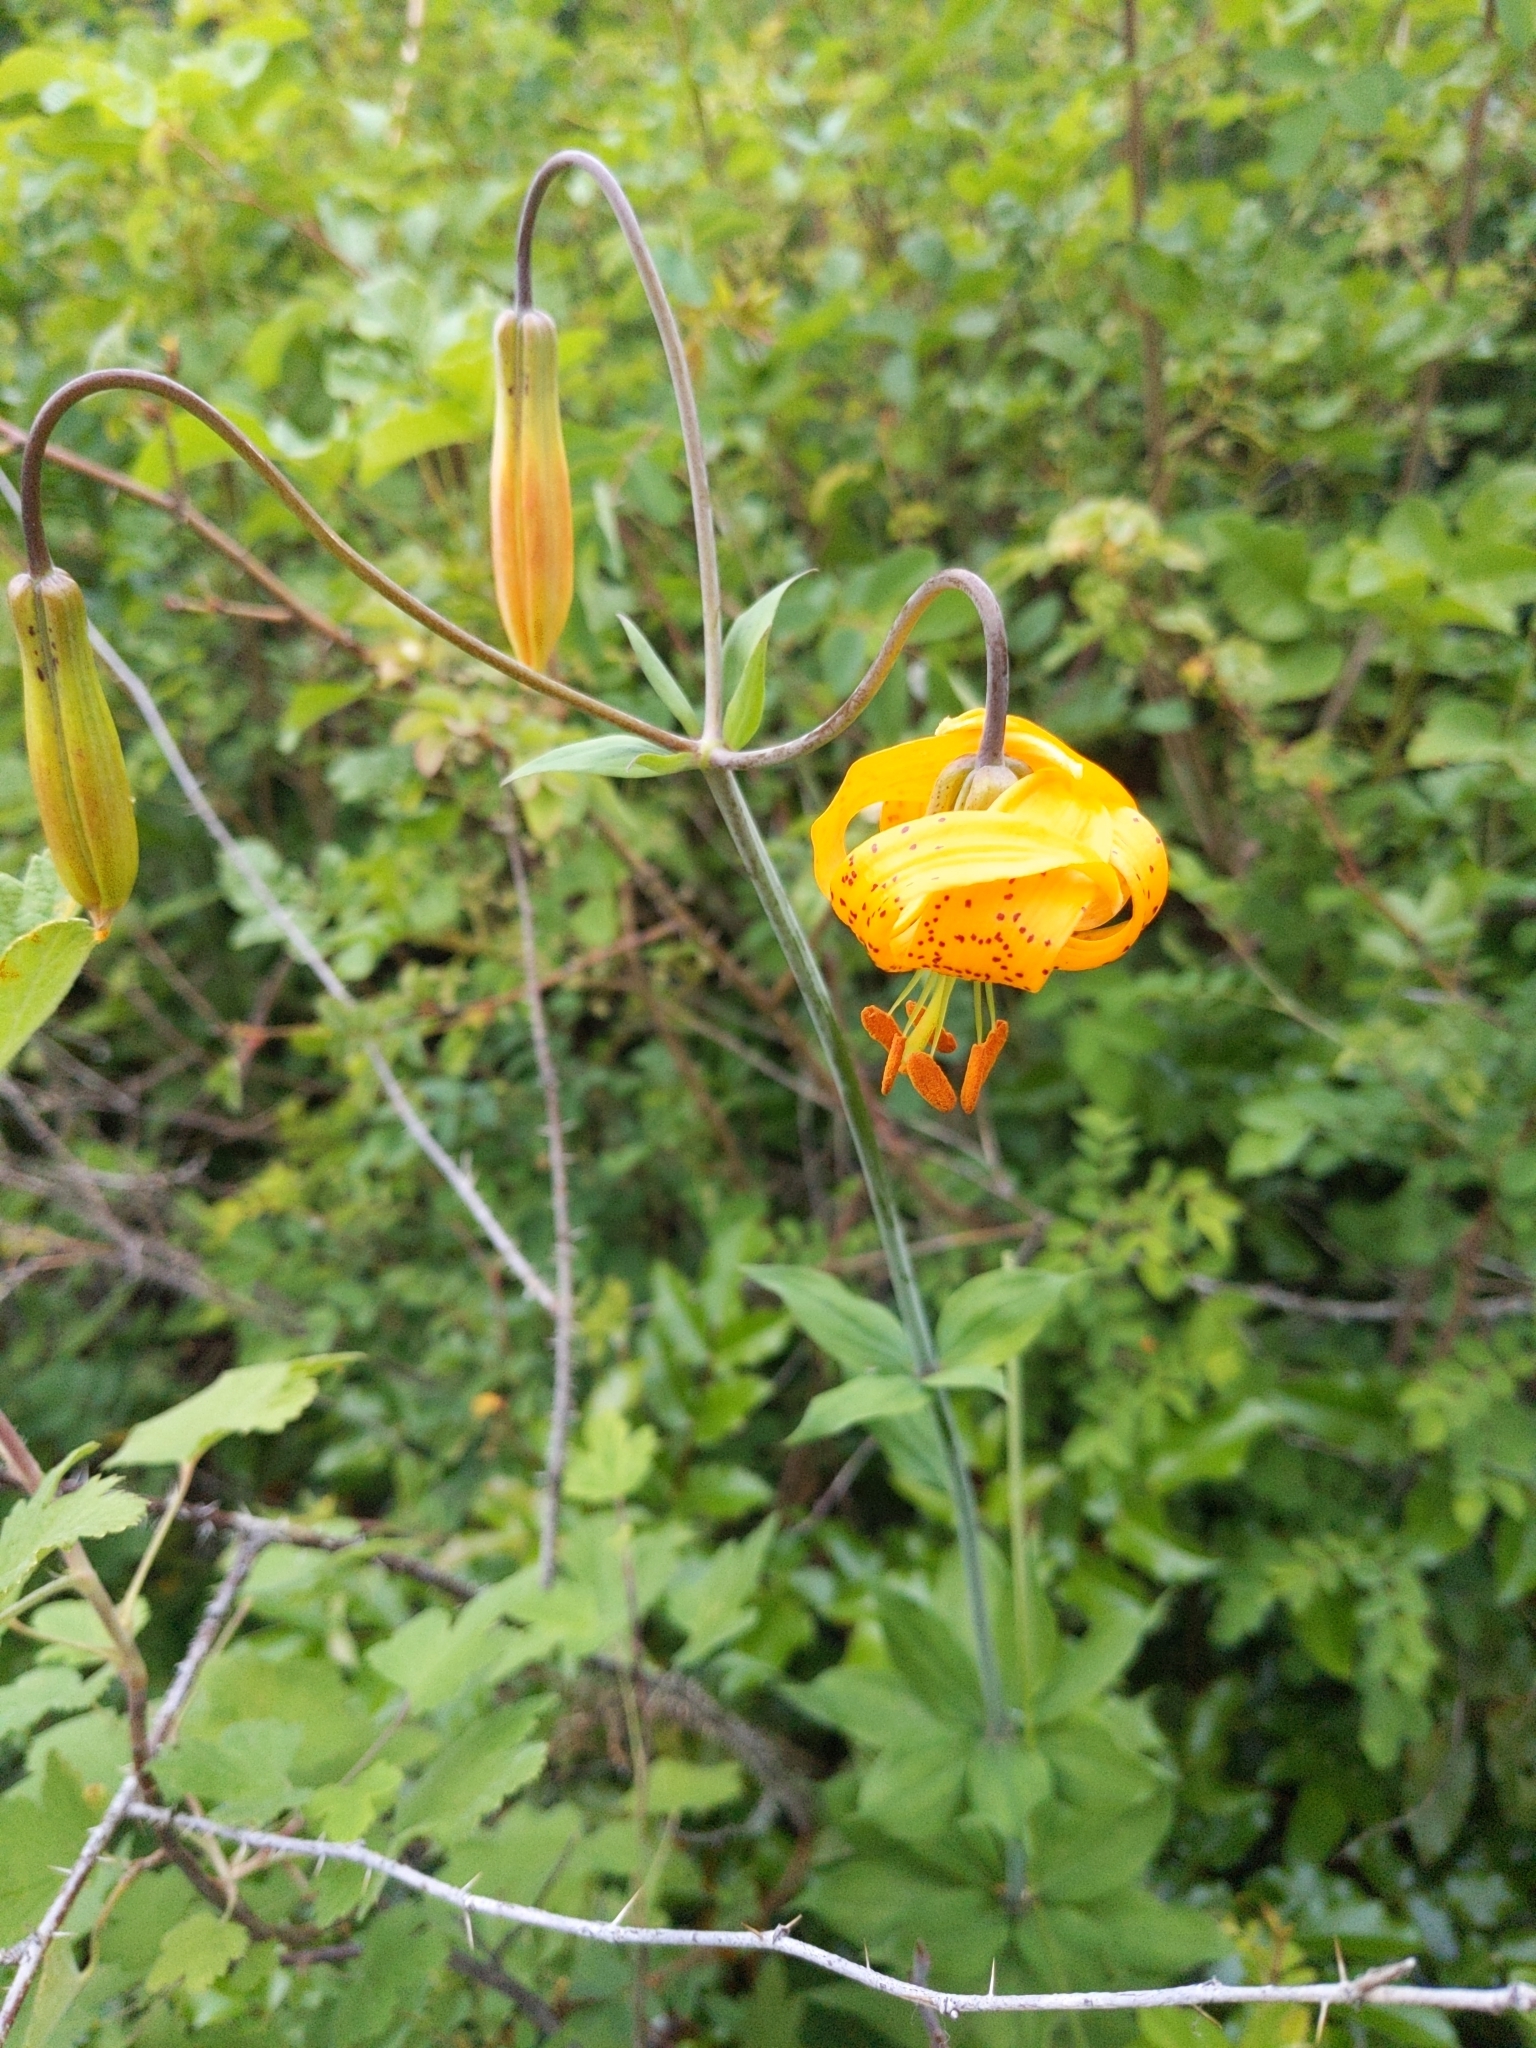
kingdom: Plantae
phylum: Tracheophyta
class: Liliopsida
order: Liliales
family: Liliaceae
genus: Lilium
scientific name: Lilium columbianum
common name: Columbia lily
